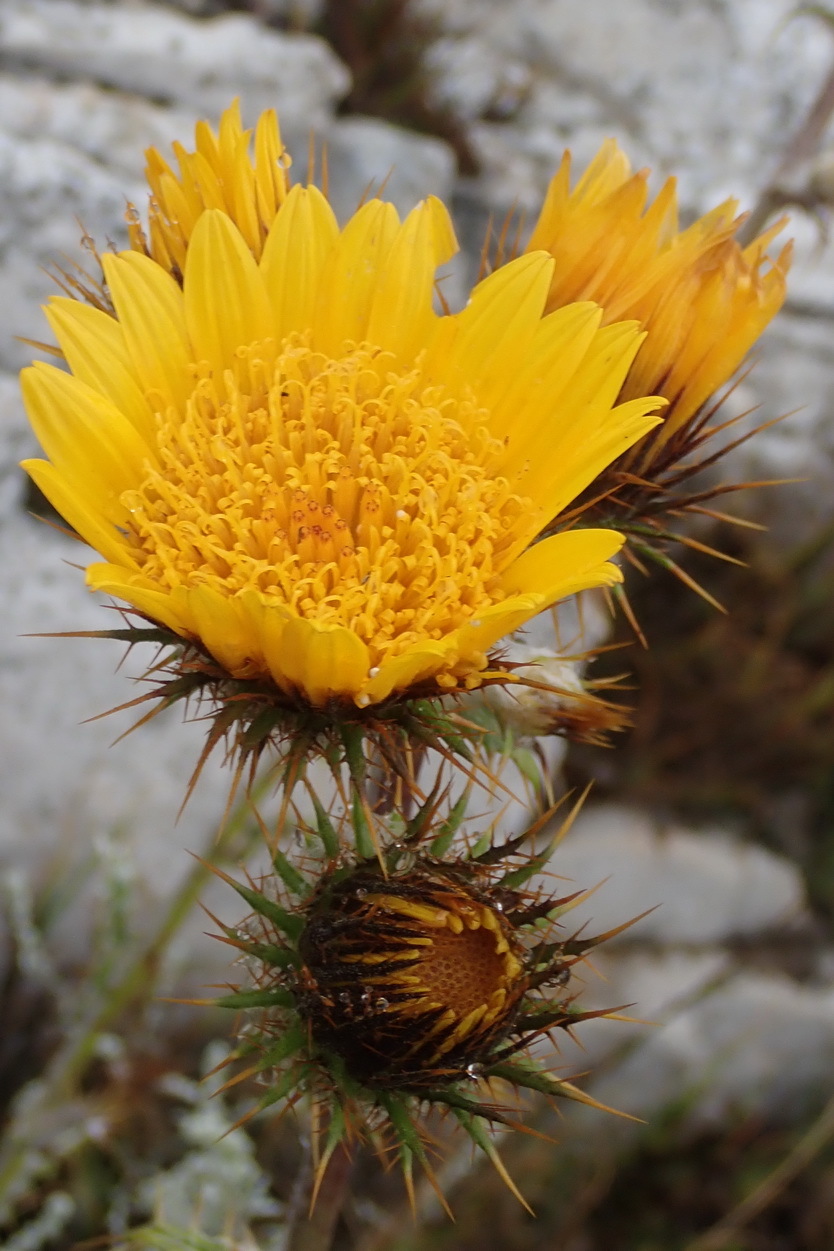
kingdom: Plantae
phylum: Tracheophyta
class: Magnoliopsida
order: Asterales
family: Asteraceae
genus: Berkheya
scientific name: Berkheya francisci
